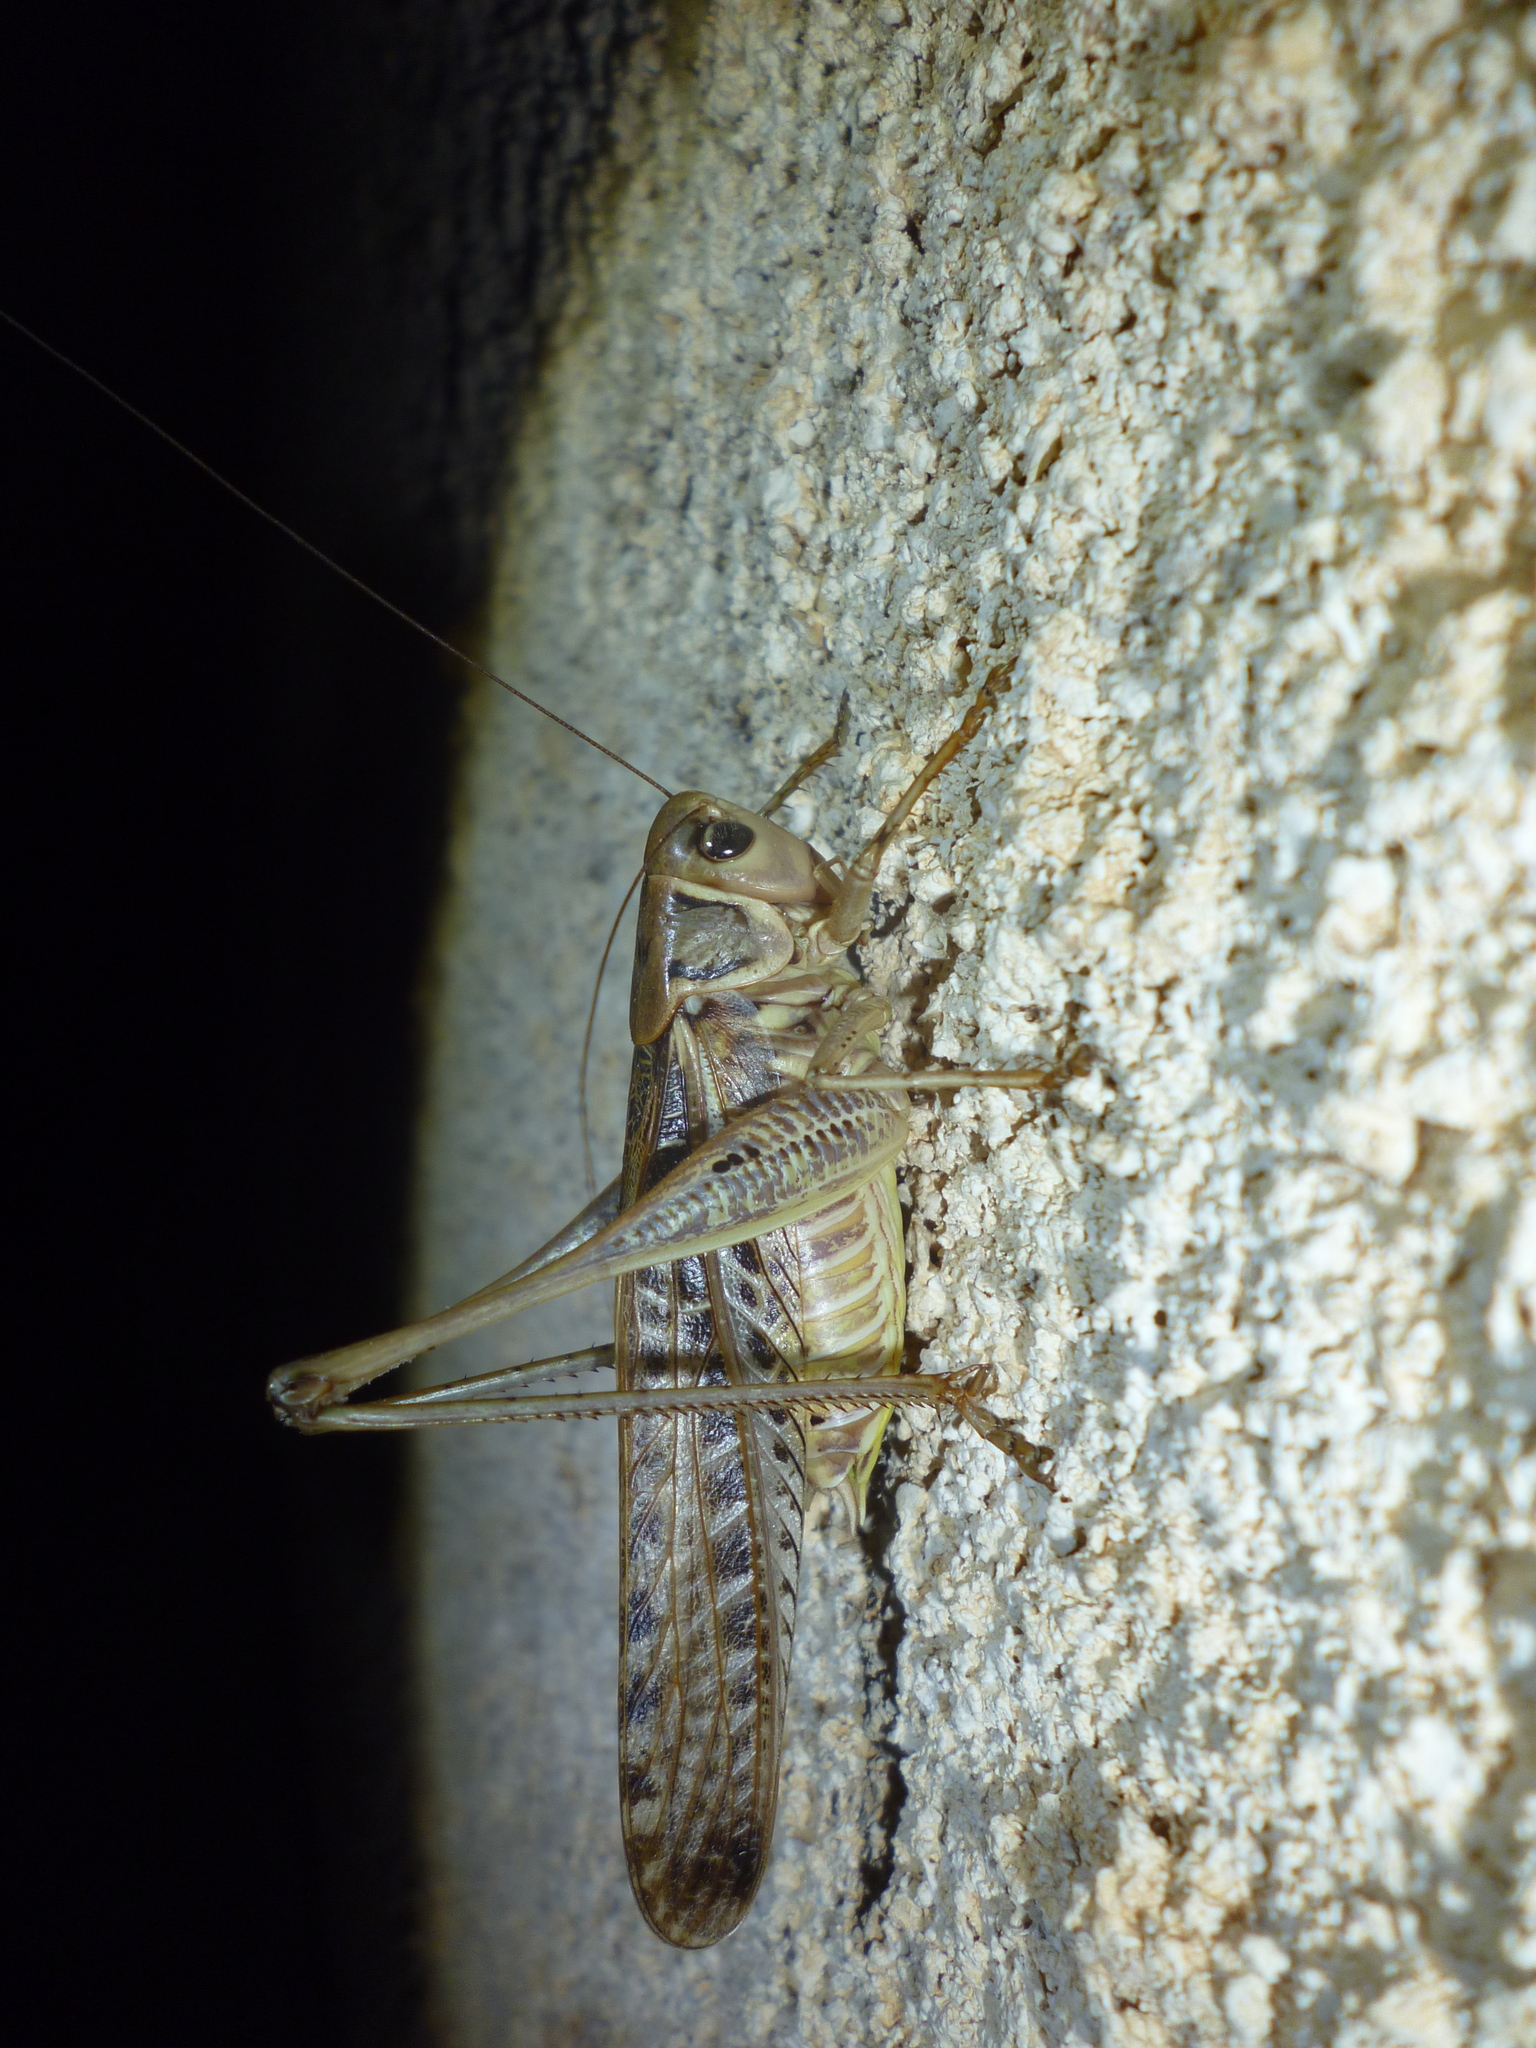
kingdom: Animalia
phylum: Arthropoda
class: Insecta
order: Orthoptera
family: Tettigoniidae
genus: Decticus
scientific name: Decticus albifrons
